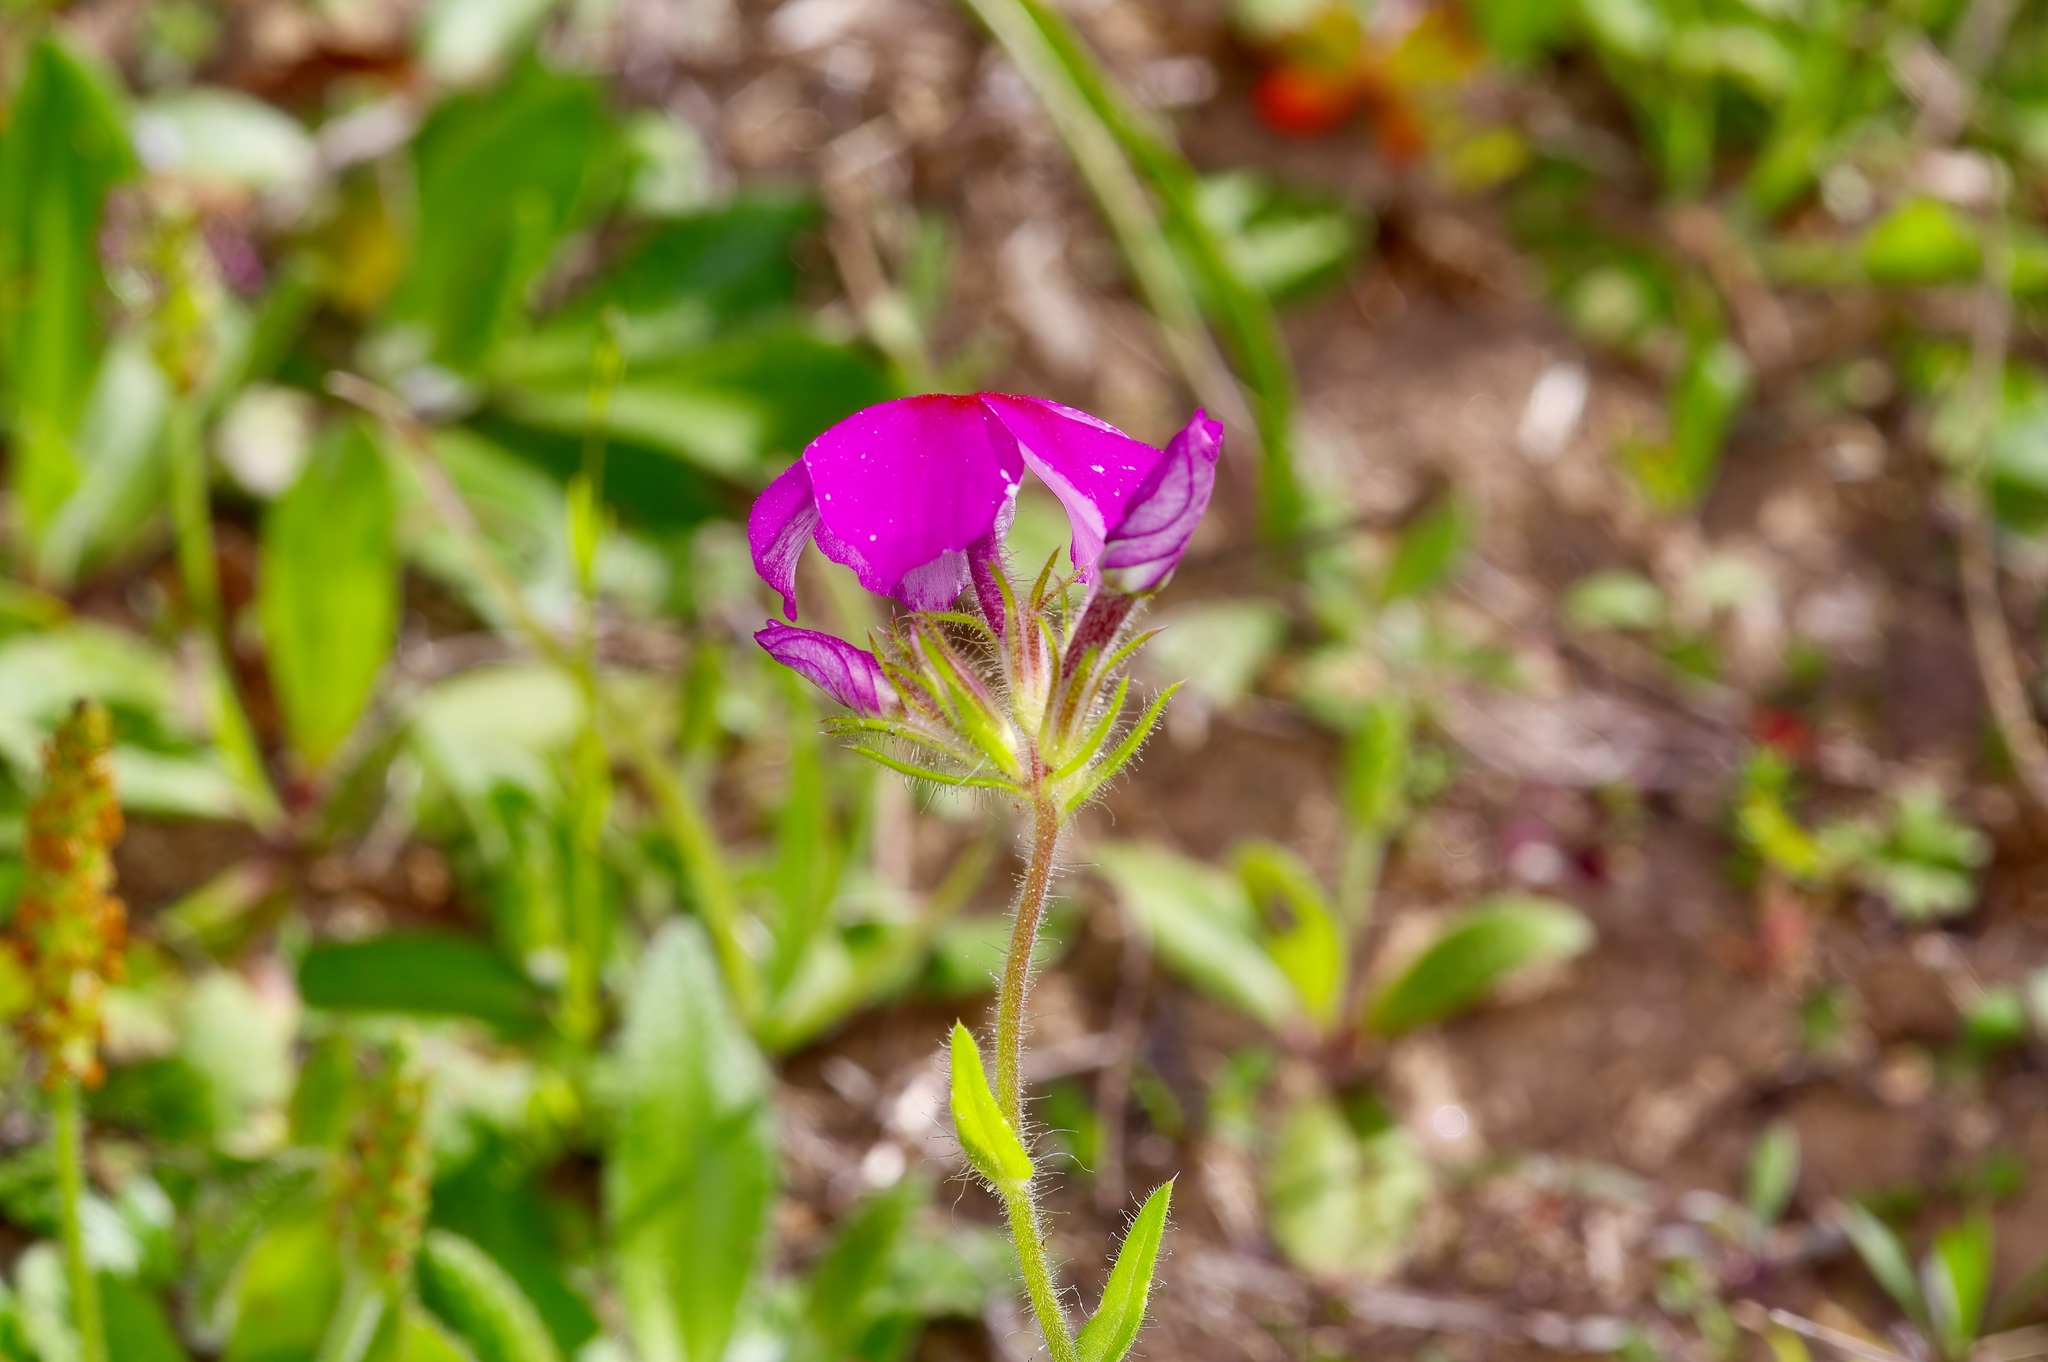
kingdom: Plantae
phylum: Tracheophyta
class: Magnoliopsida
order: Ericales
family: Polemoniaceae
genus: Phlox
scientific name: Phlox drummondii
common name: Drummond's phlox
